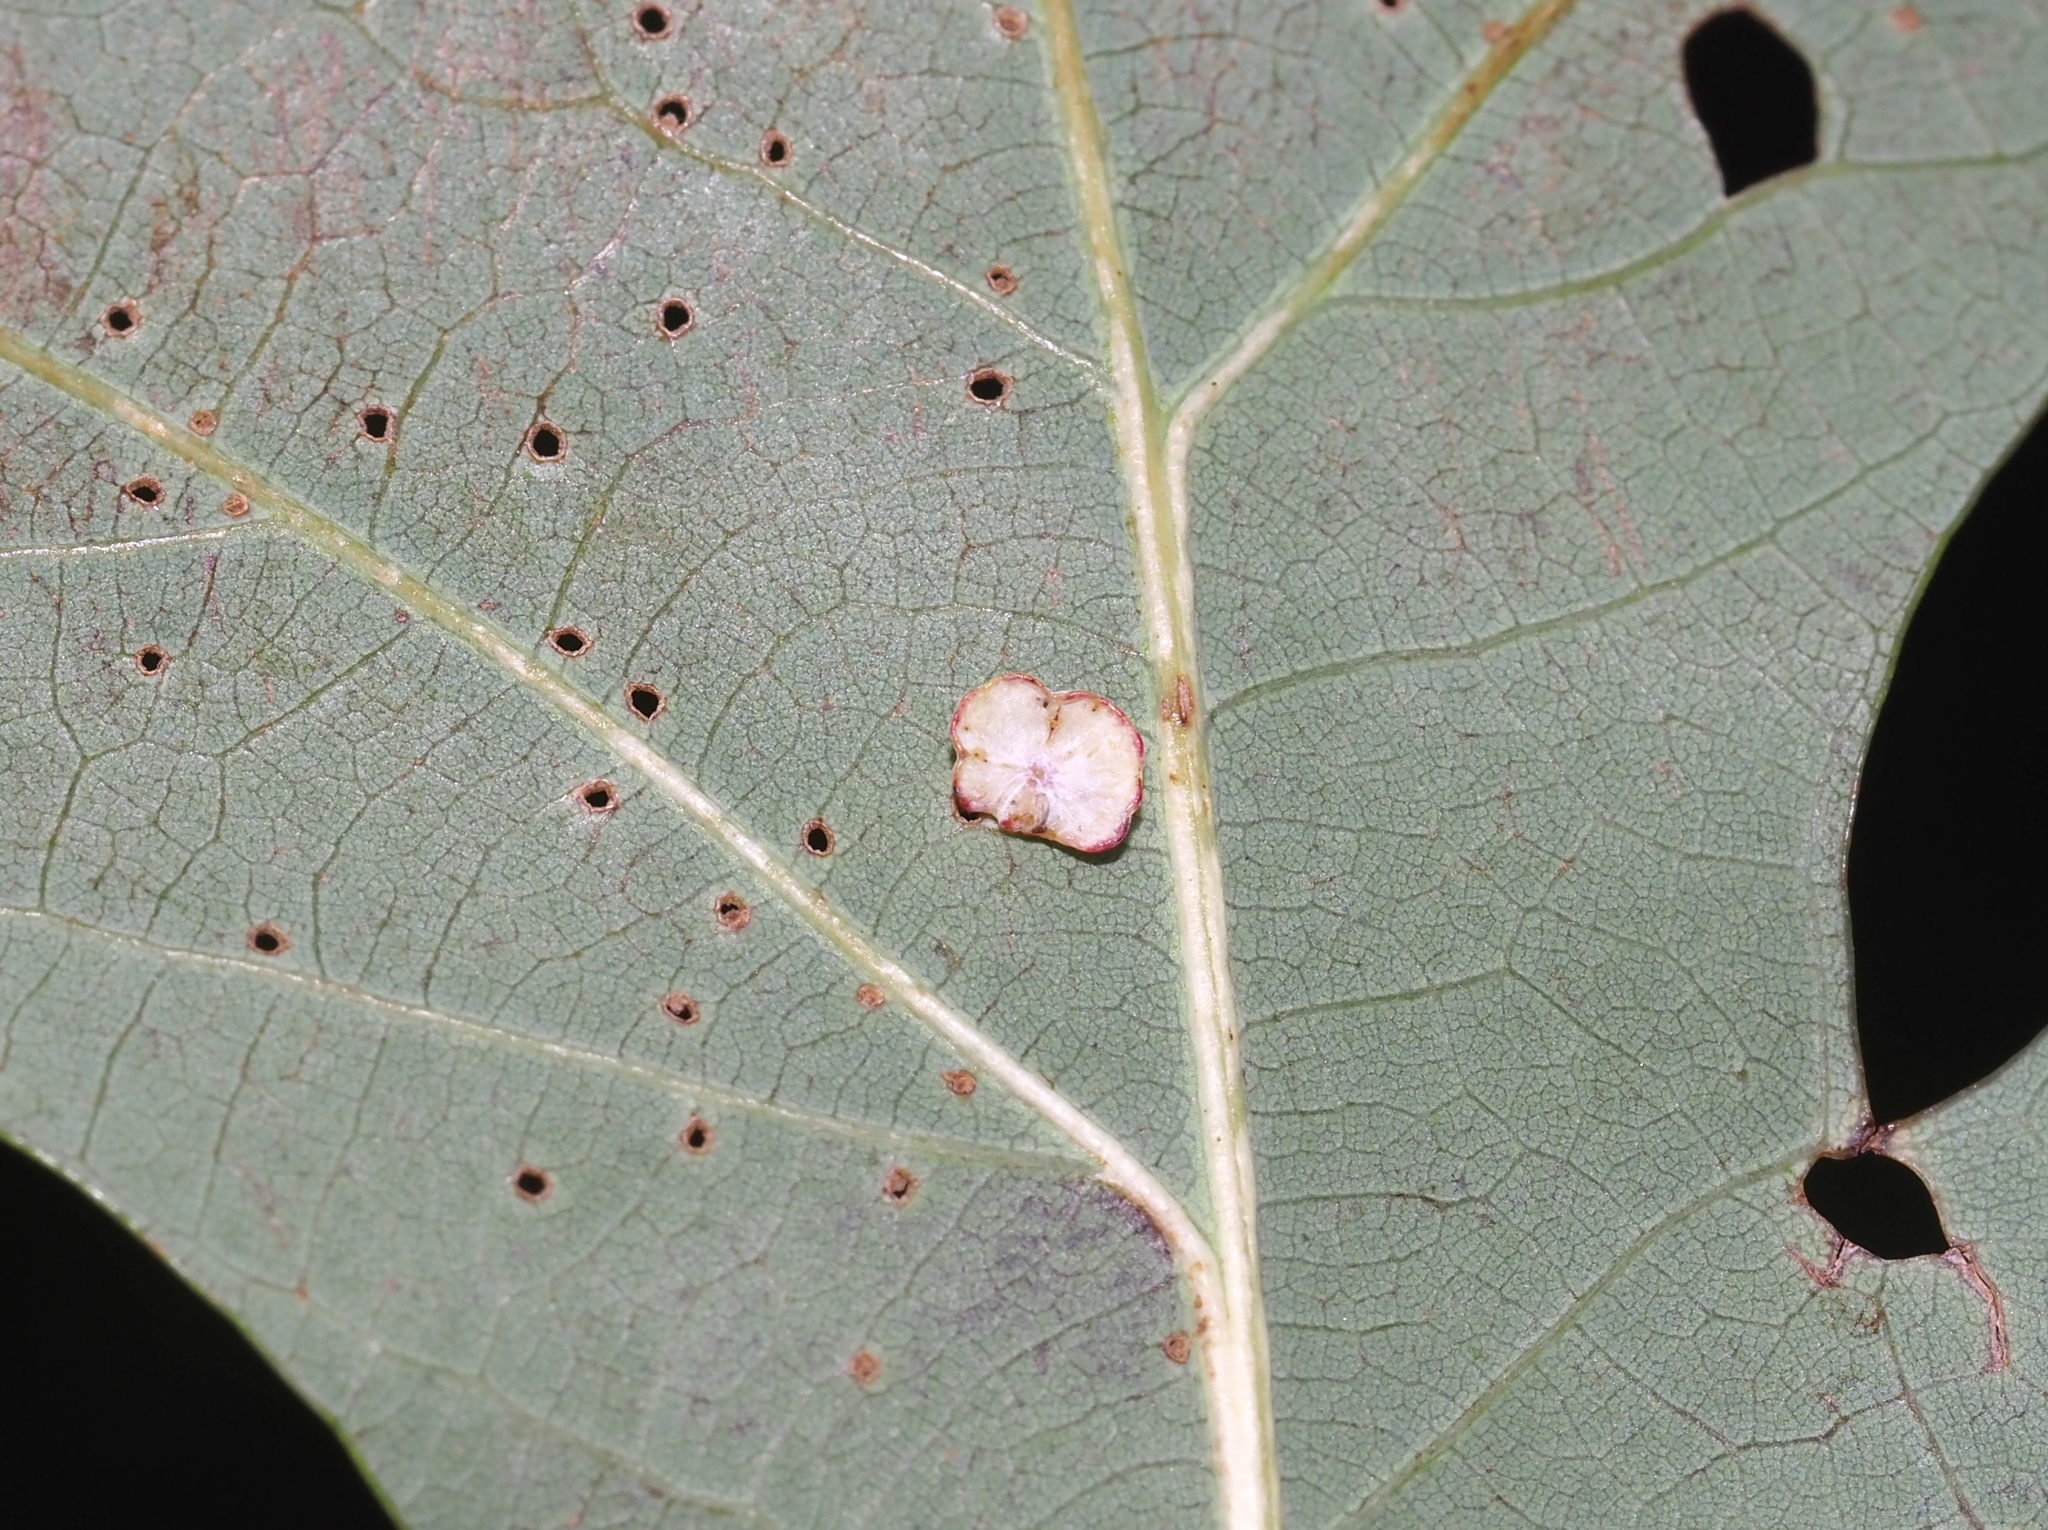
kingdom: Animalia
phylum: Arthropoda
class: Insecta
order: Hymenoptera
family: Cynipidae
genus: Phylloteras
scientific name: Phylloteras poculum
